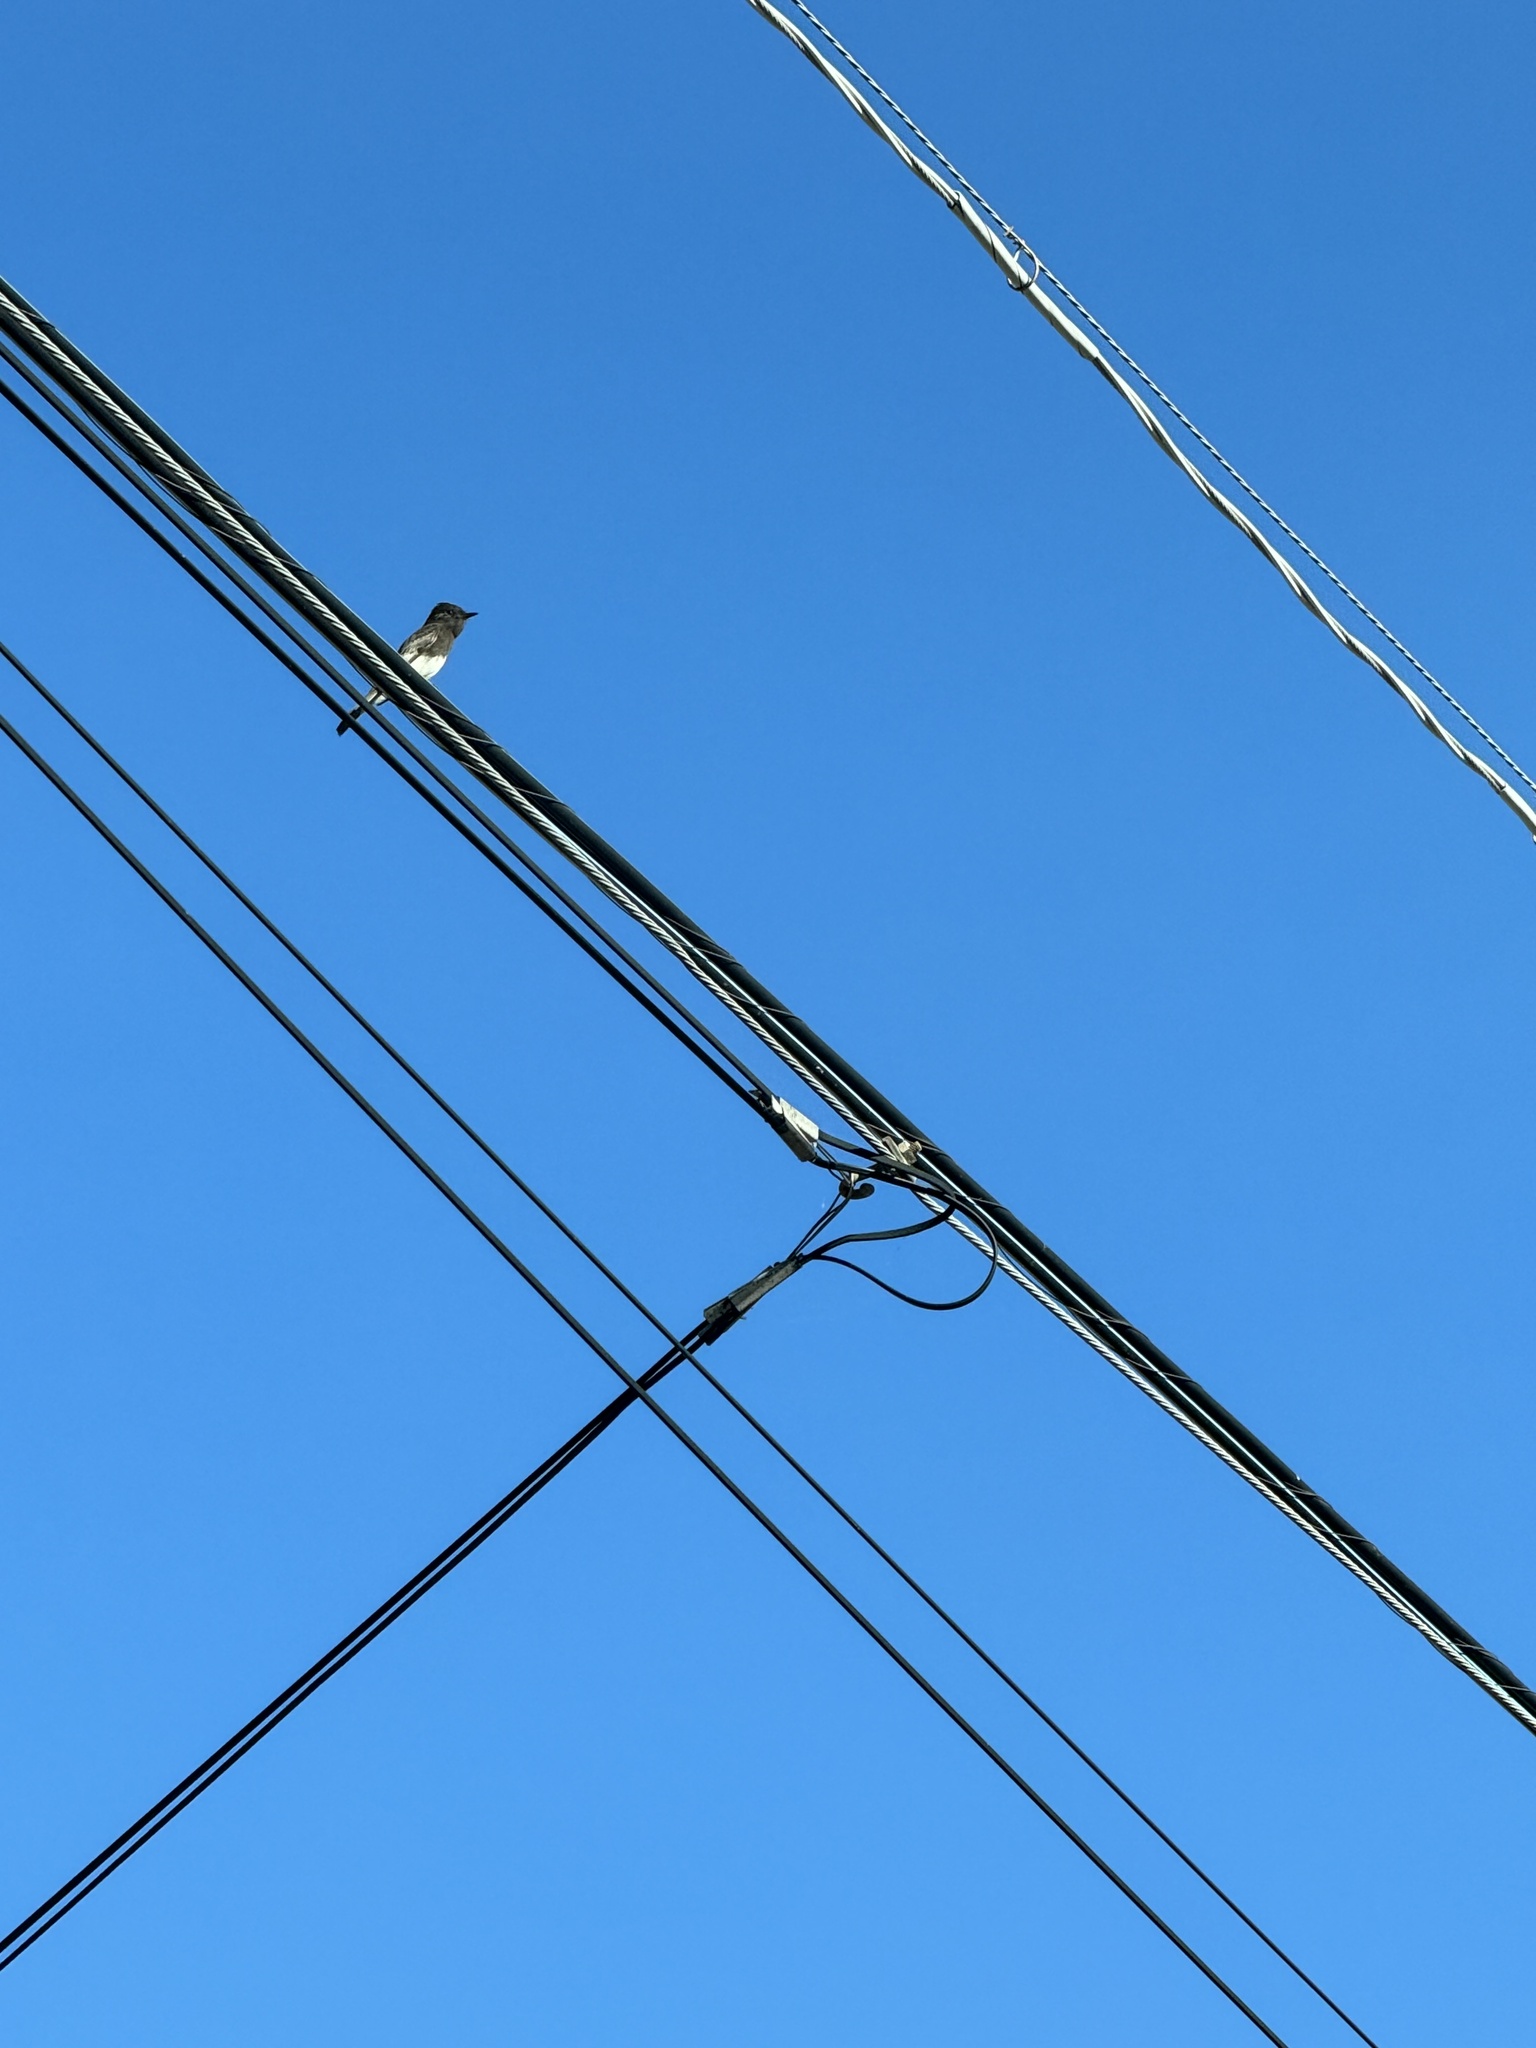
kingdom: Animalia
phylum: Chordata
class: Aves
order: Passeriformes
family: Tyrannidae
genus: Sayornis
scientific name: Sayornis nigricans
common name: Black phoebe
